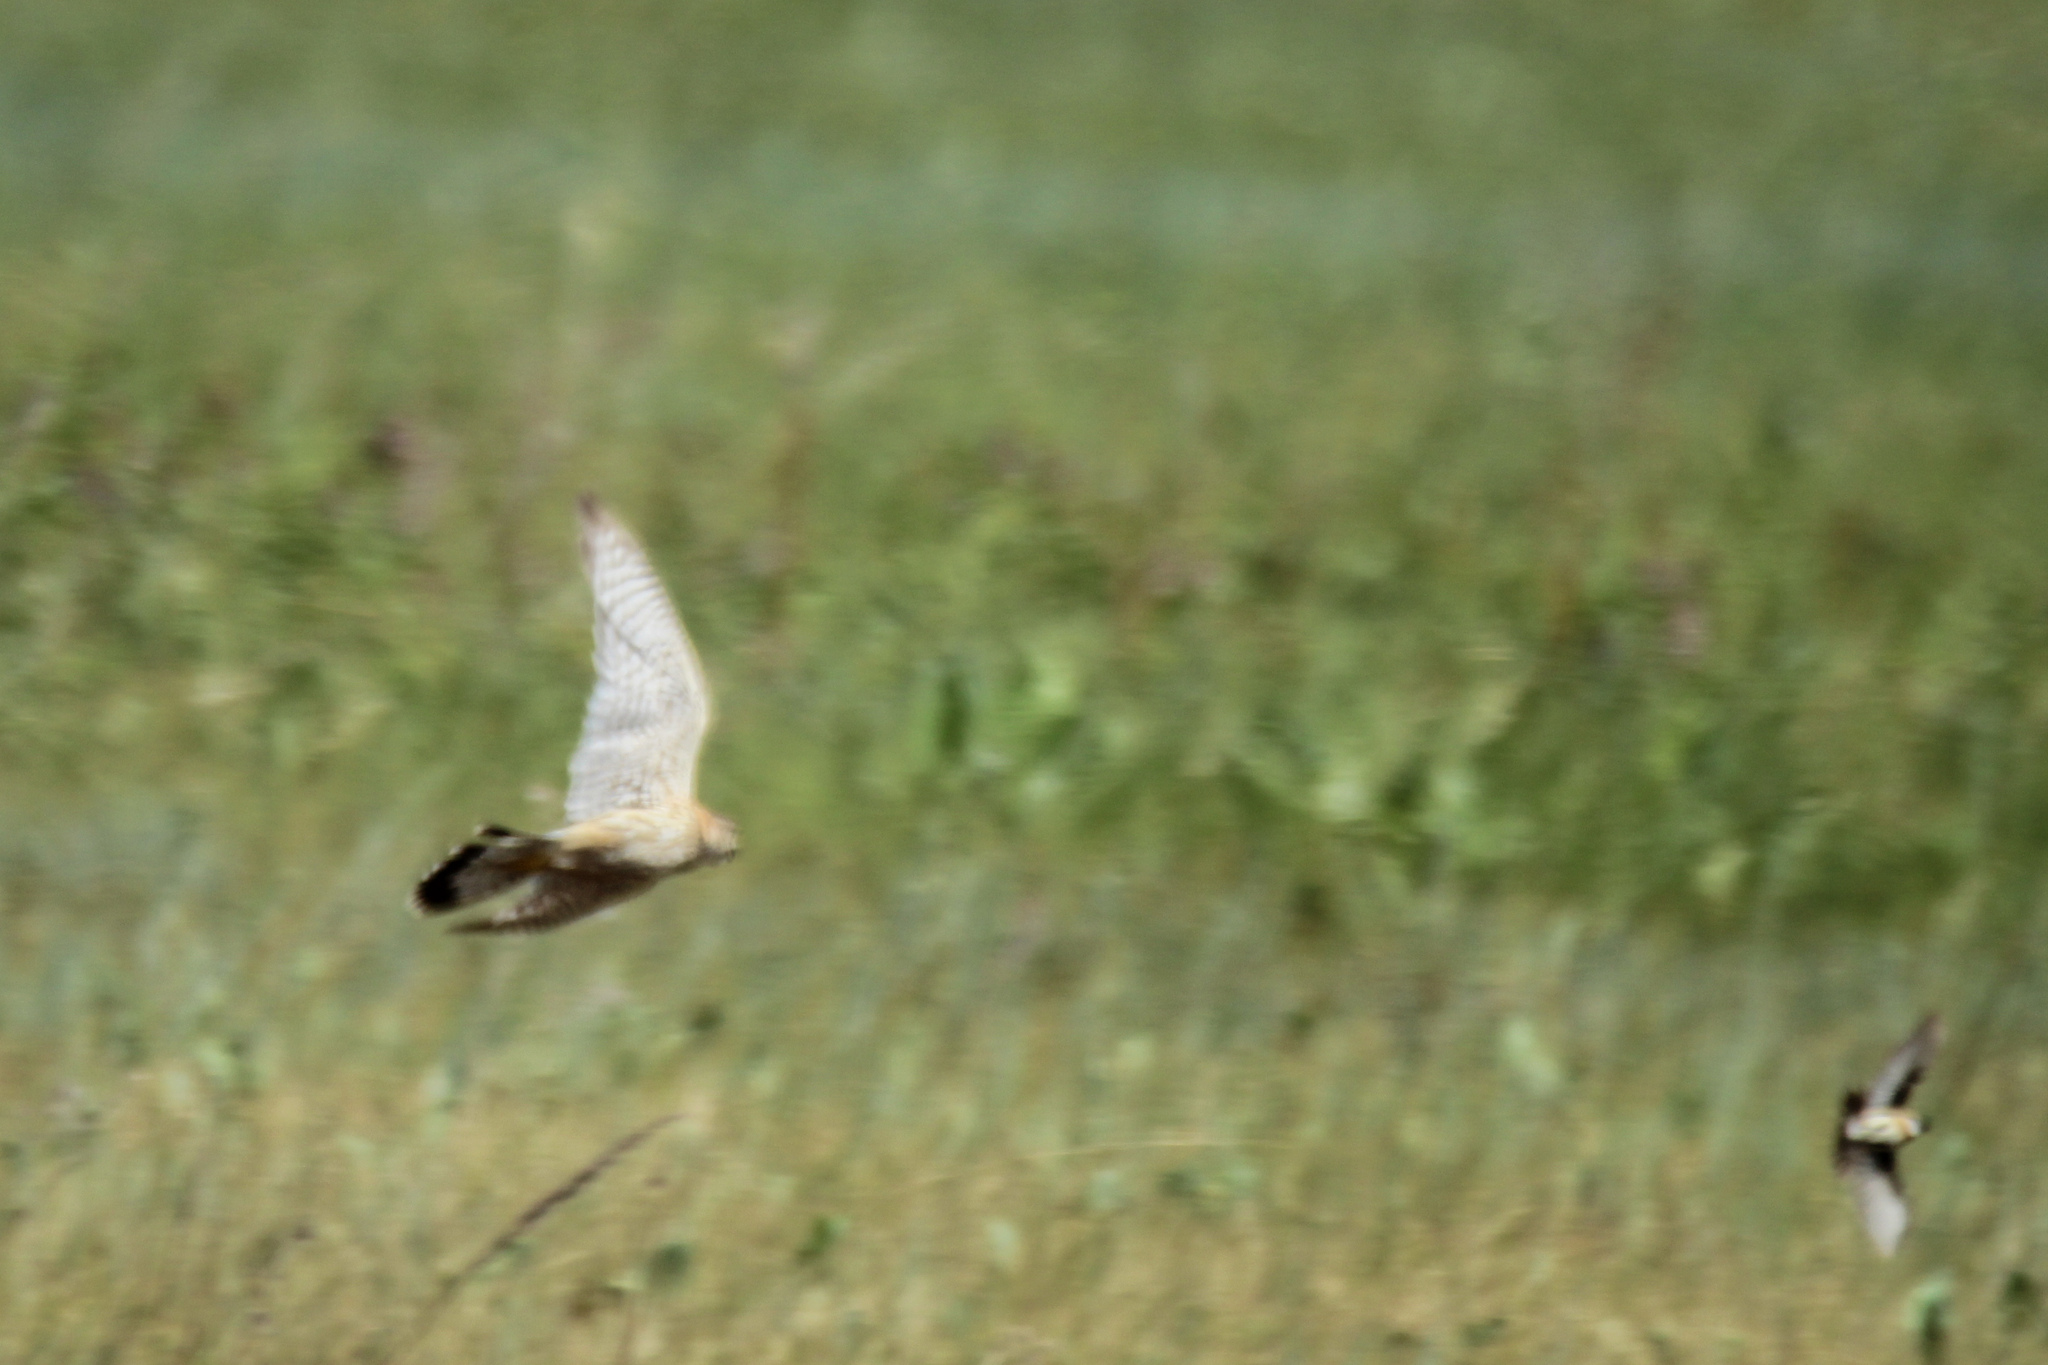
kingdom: Animalia
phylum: Chordata
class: Aves
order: Falconiformes
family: Falconidae
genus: Falco
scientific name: Falco columbarius
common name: Merlin
